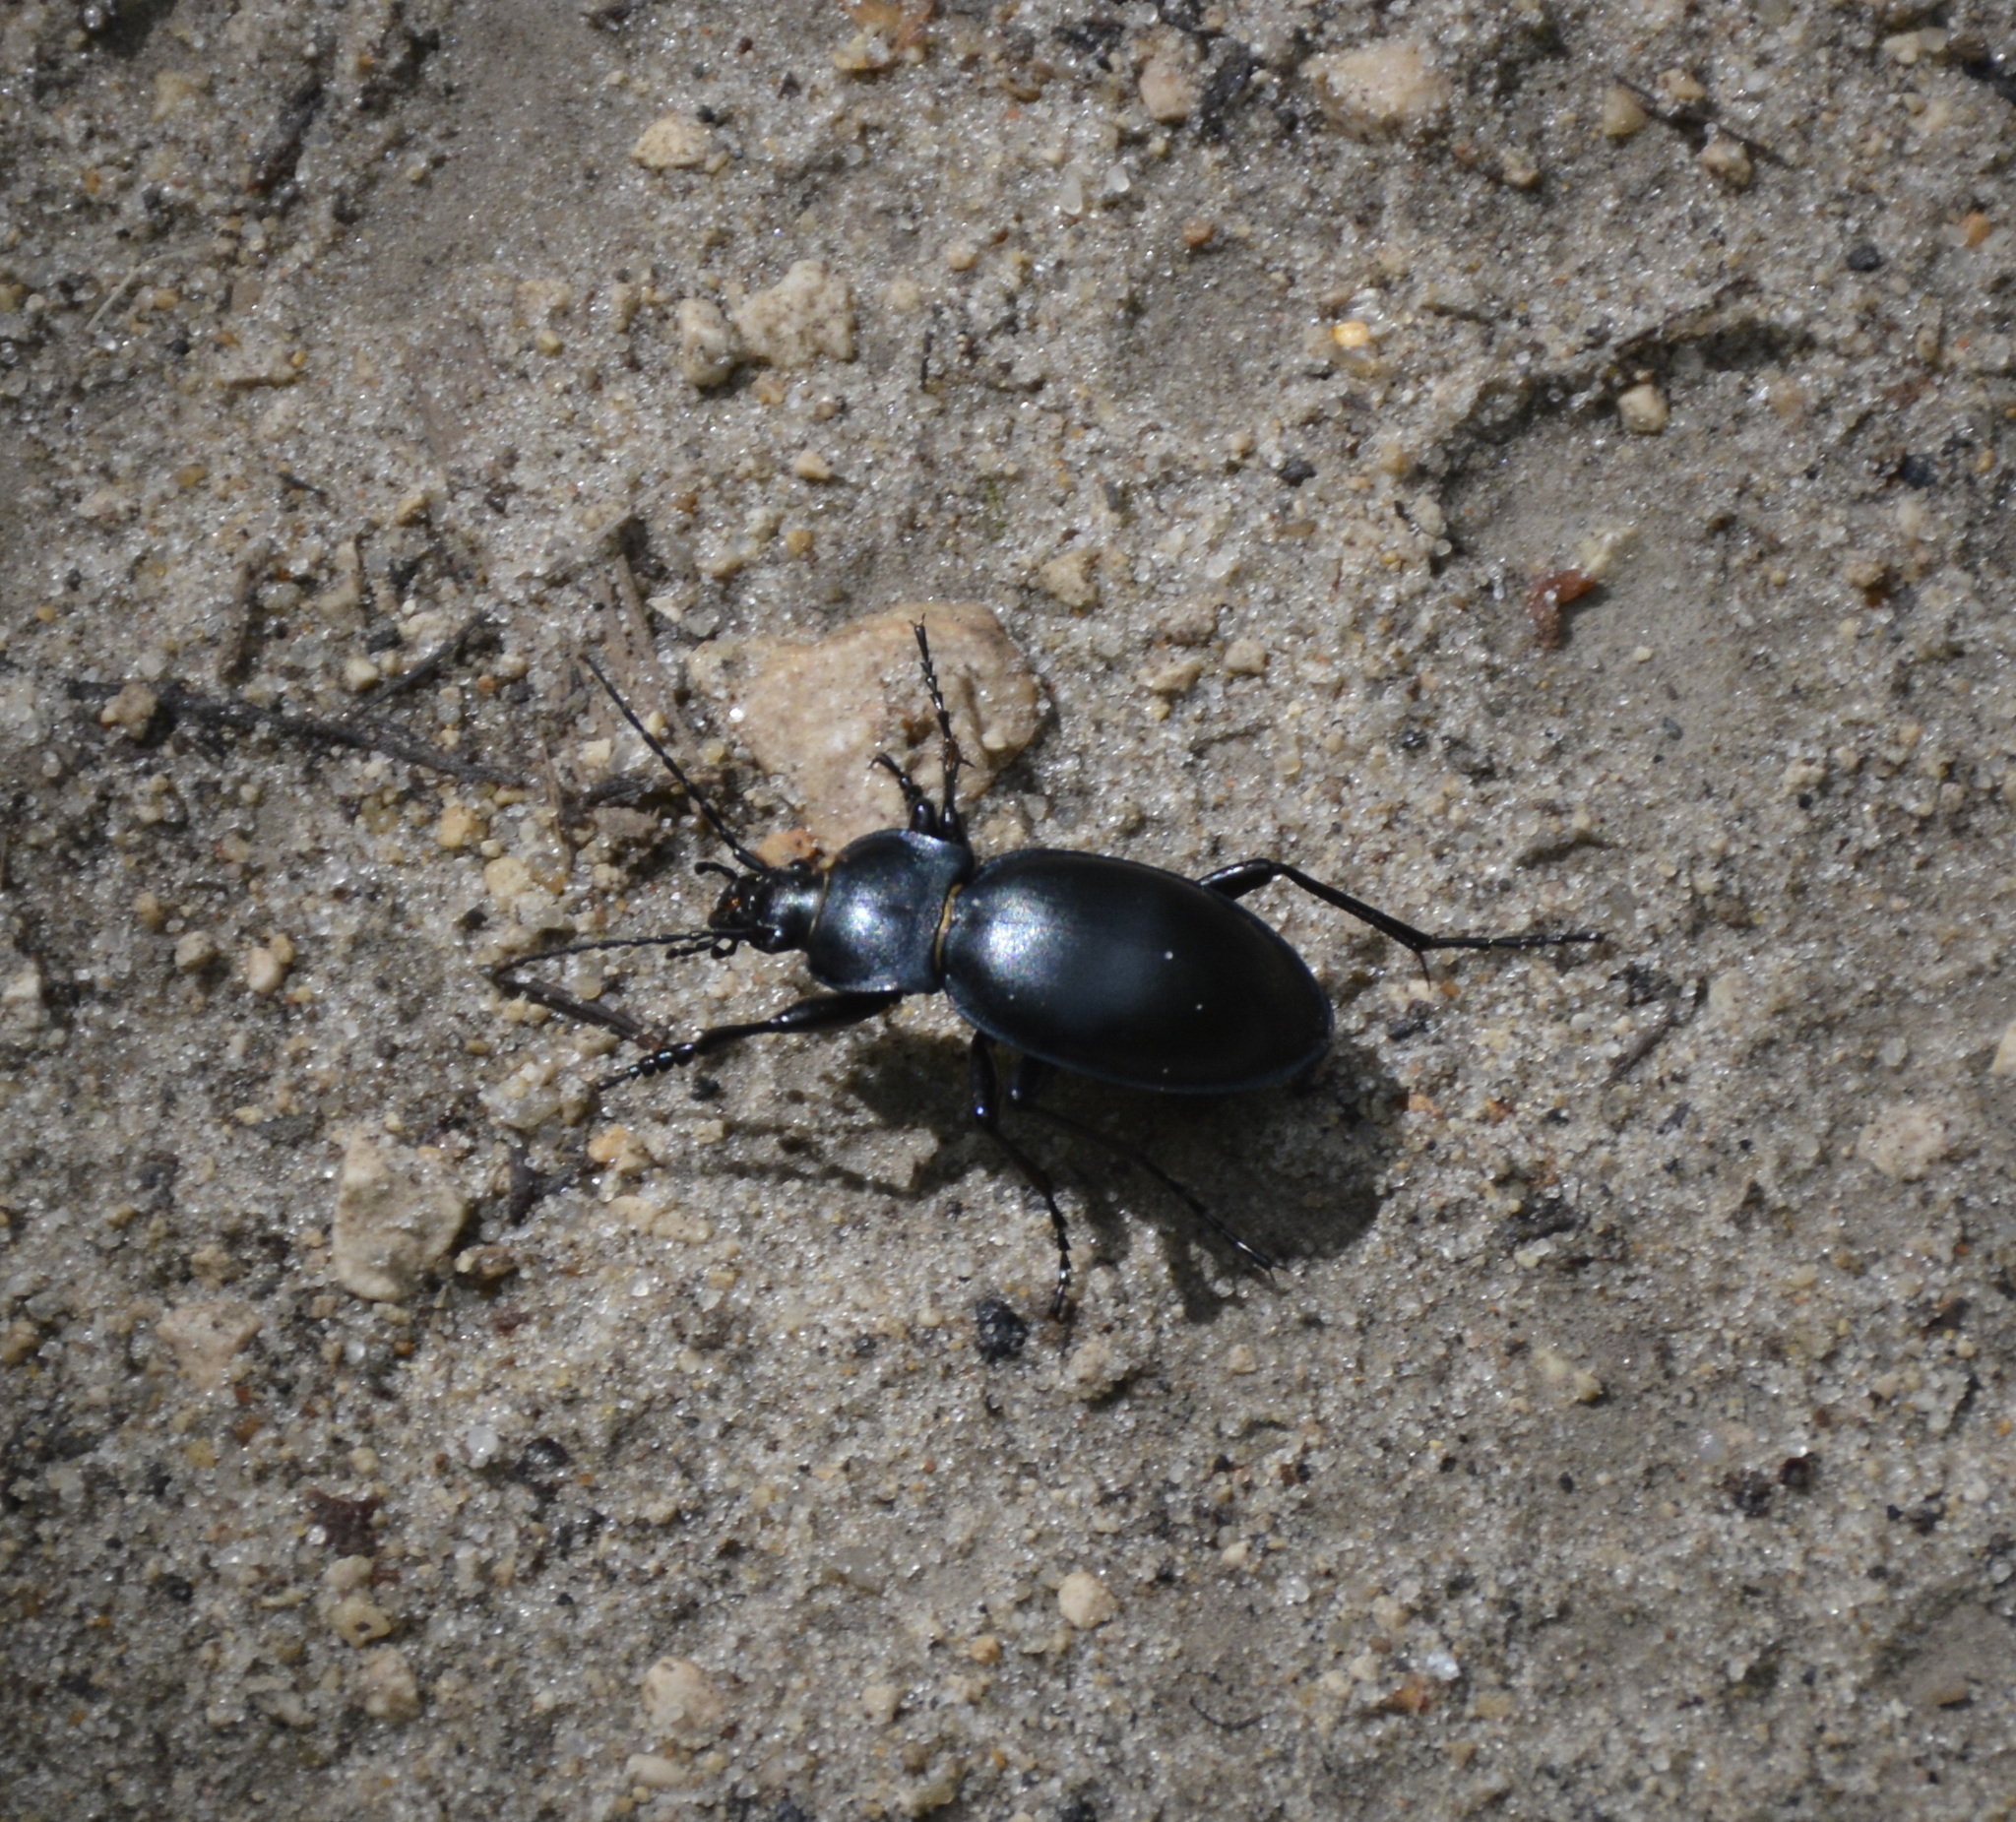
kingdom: Animalia
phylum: Arthropoda
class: Insecta
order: Coleoptera
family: Carabidae
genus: Carabus
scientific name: Carabus glabratus
